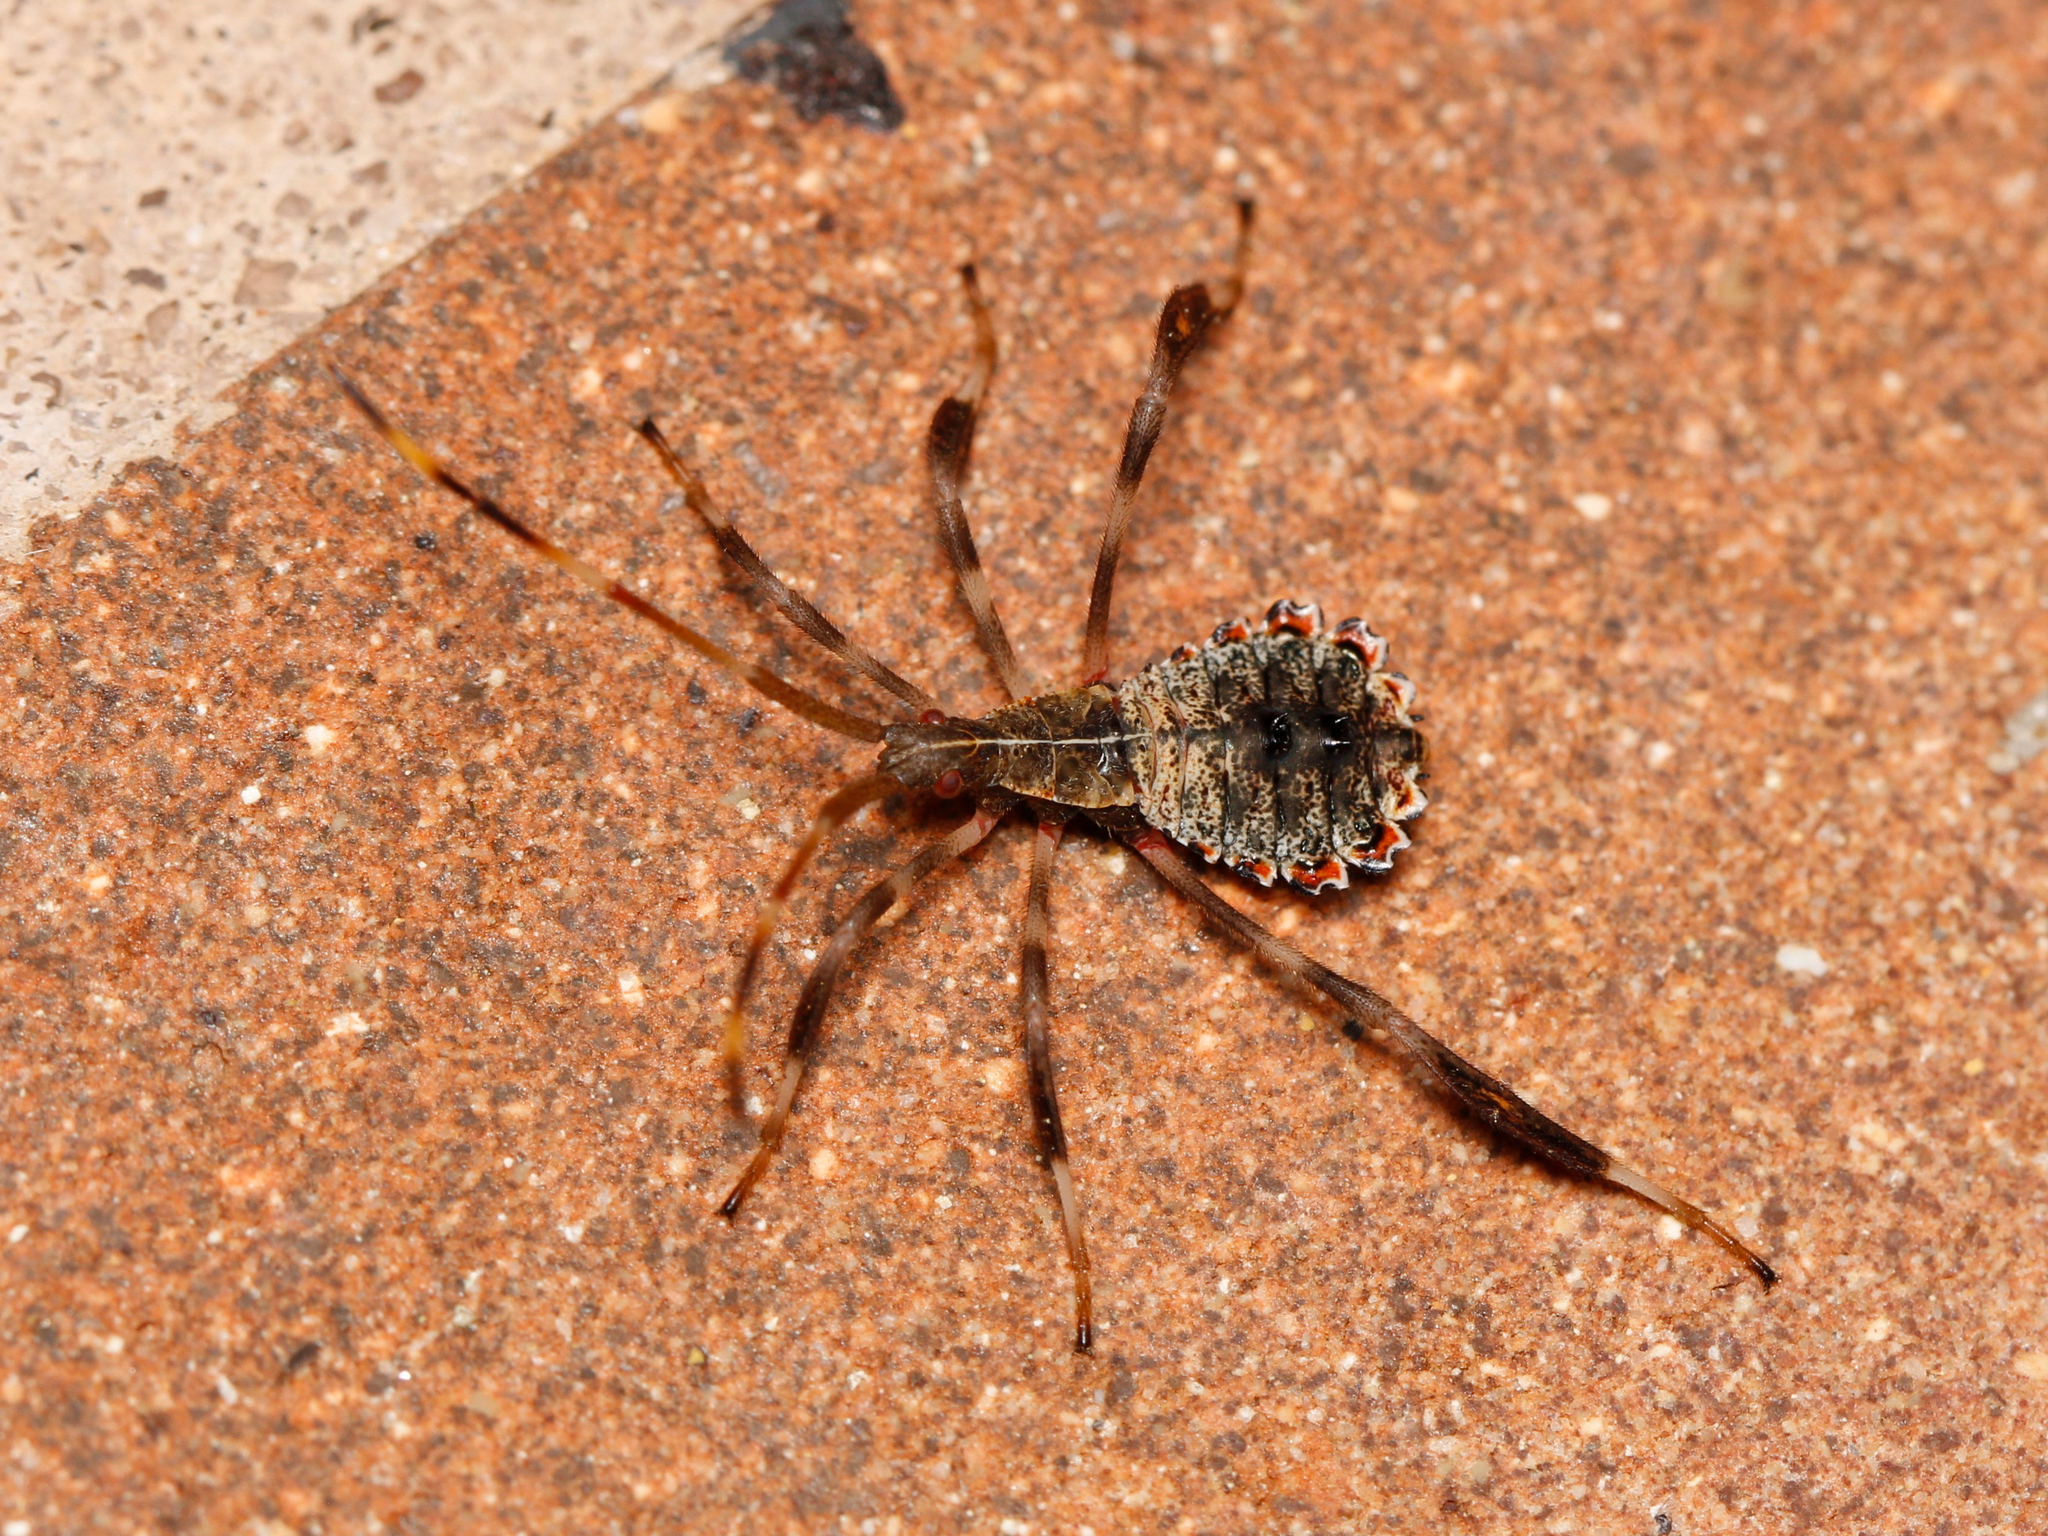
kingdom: Animalia
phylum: Arthropoda
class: Insecta
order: Hemiptera
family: Coreidae
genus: Acanthocephala
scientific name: Acanthocephala terminalis
